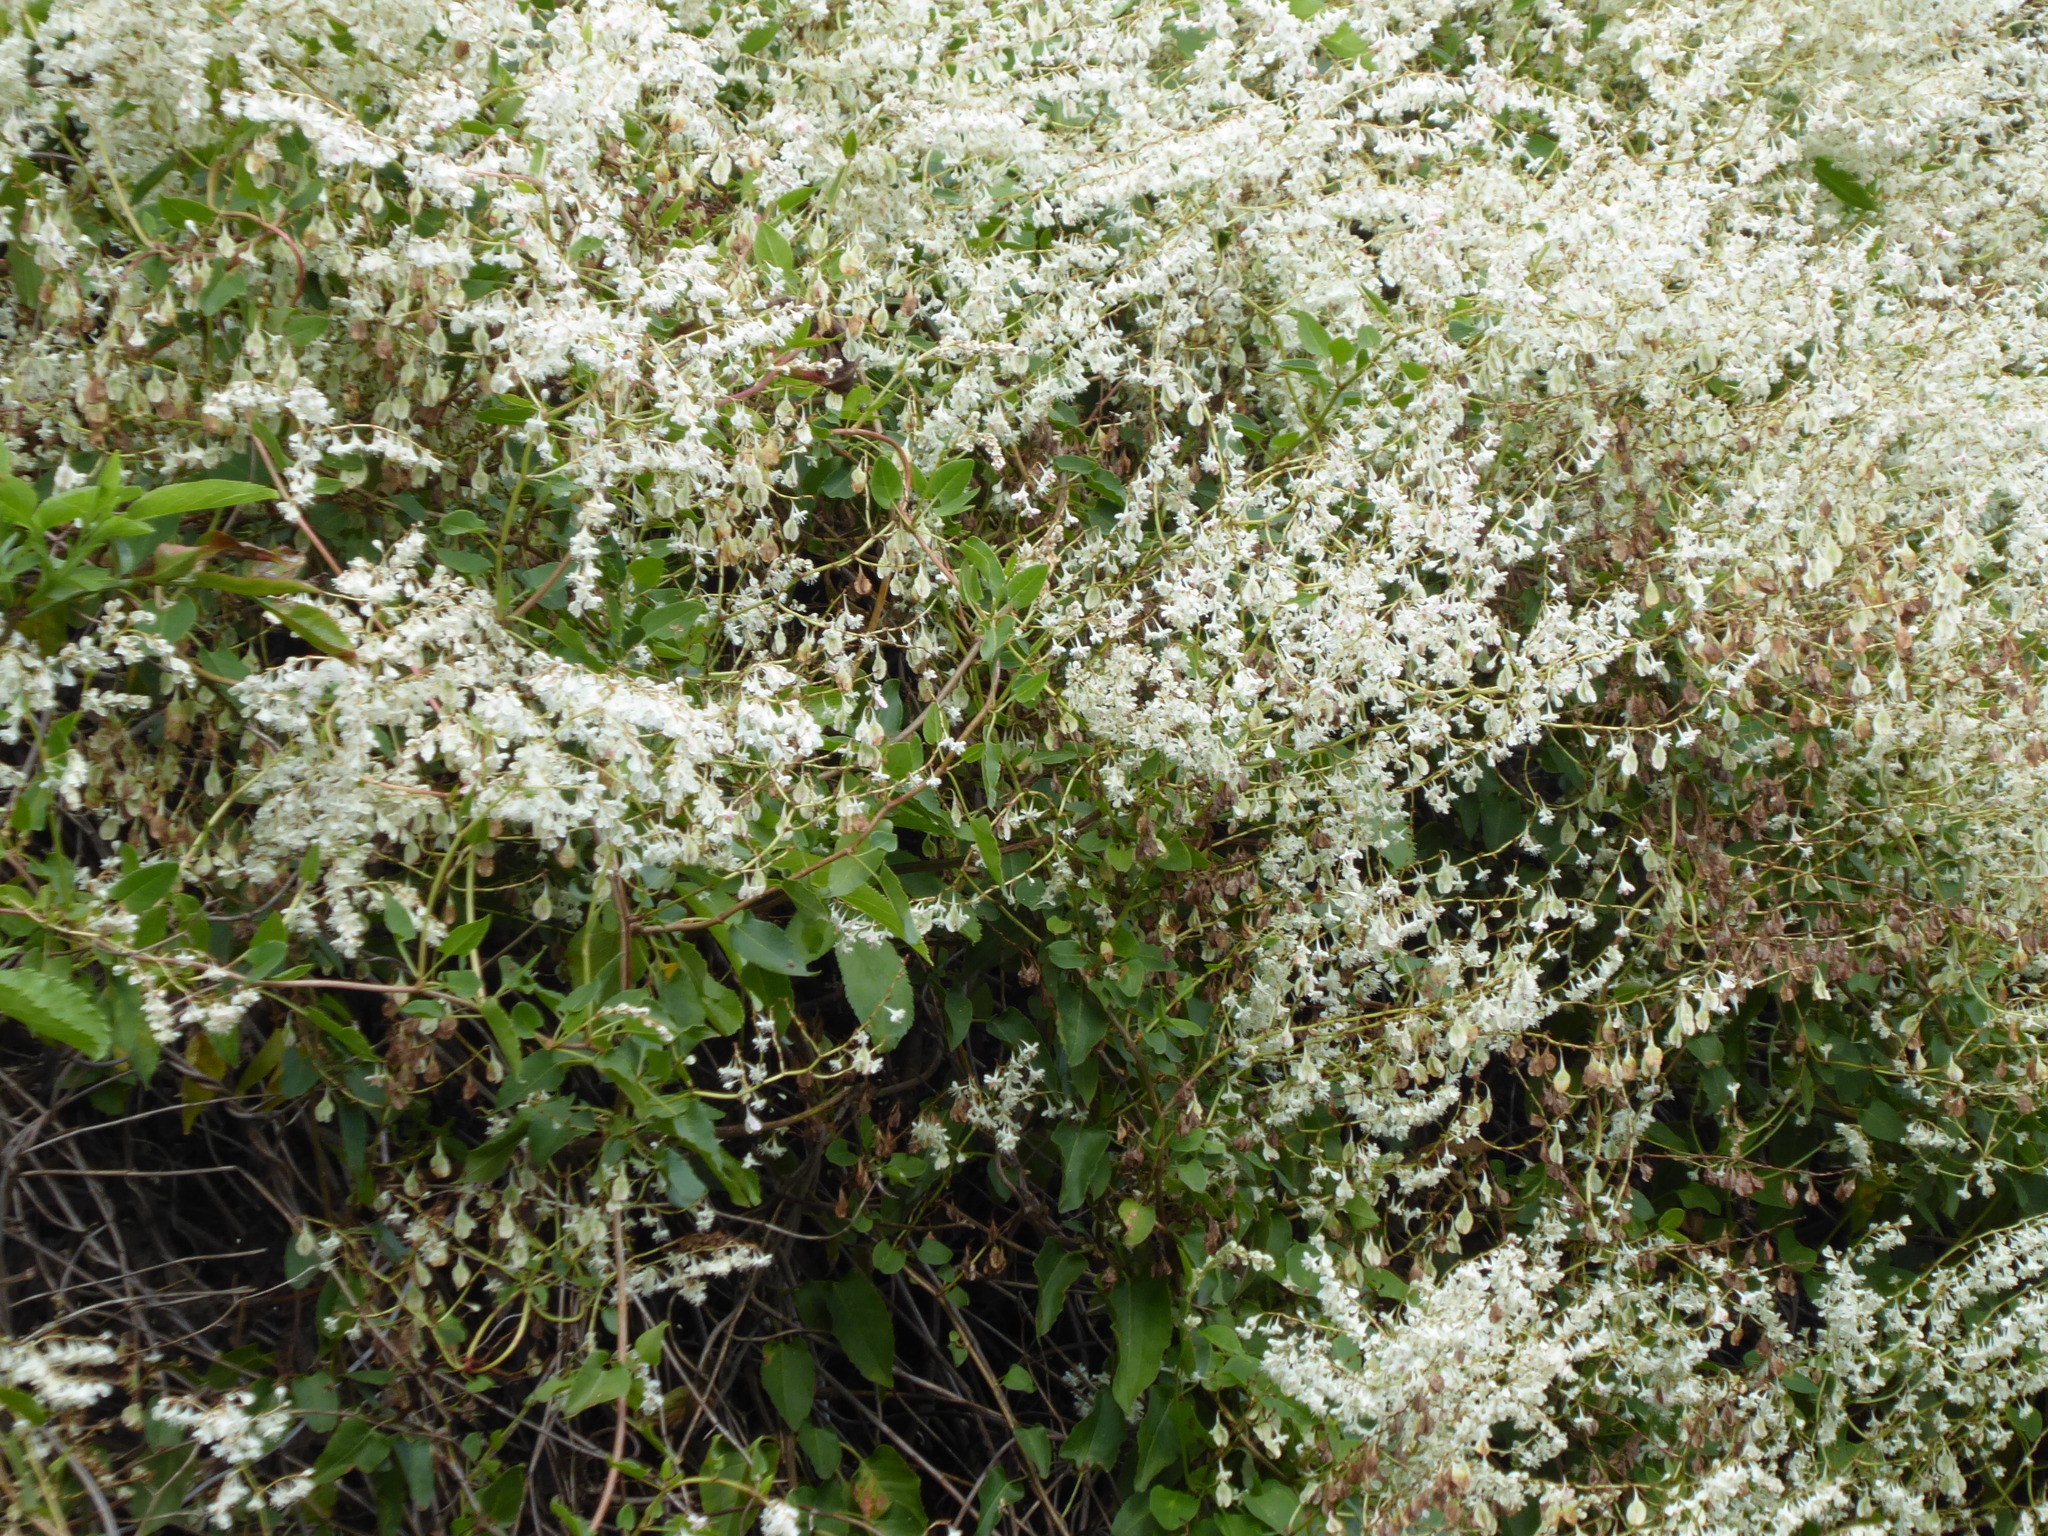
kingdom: Plantae
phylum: Tracheophyta
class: Magnoliopsida
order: Caryophyllales
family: Polygonaceae
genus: Fallopia
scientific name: Fallopia baldschuanica
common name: Russian-vine
